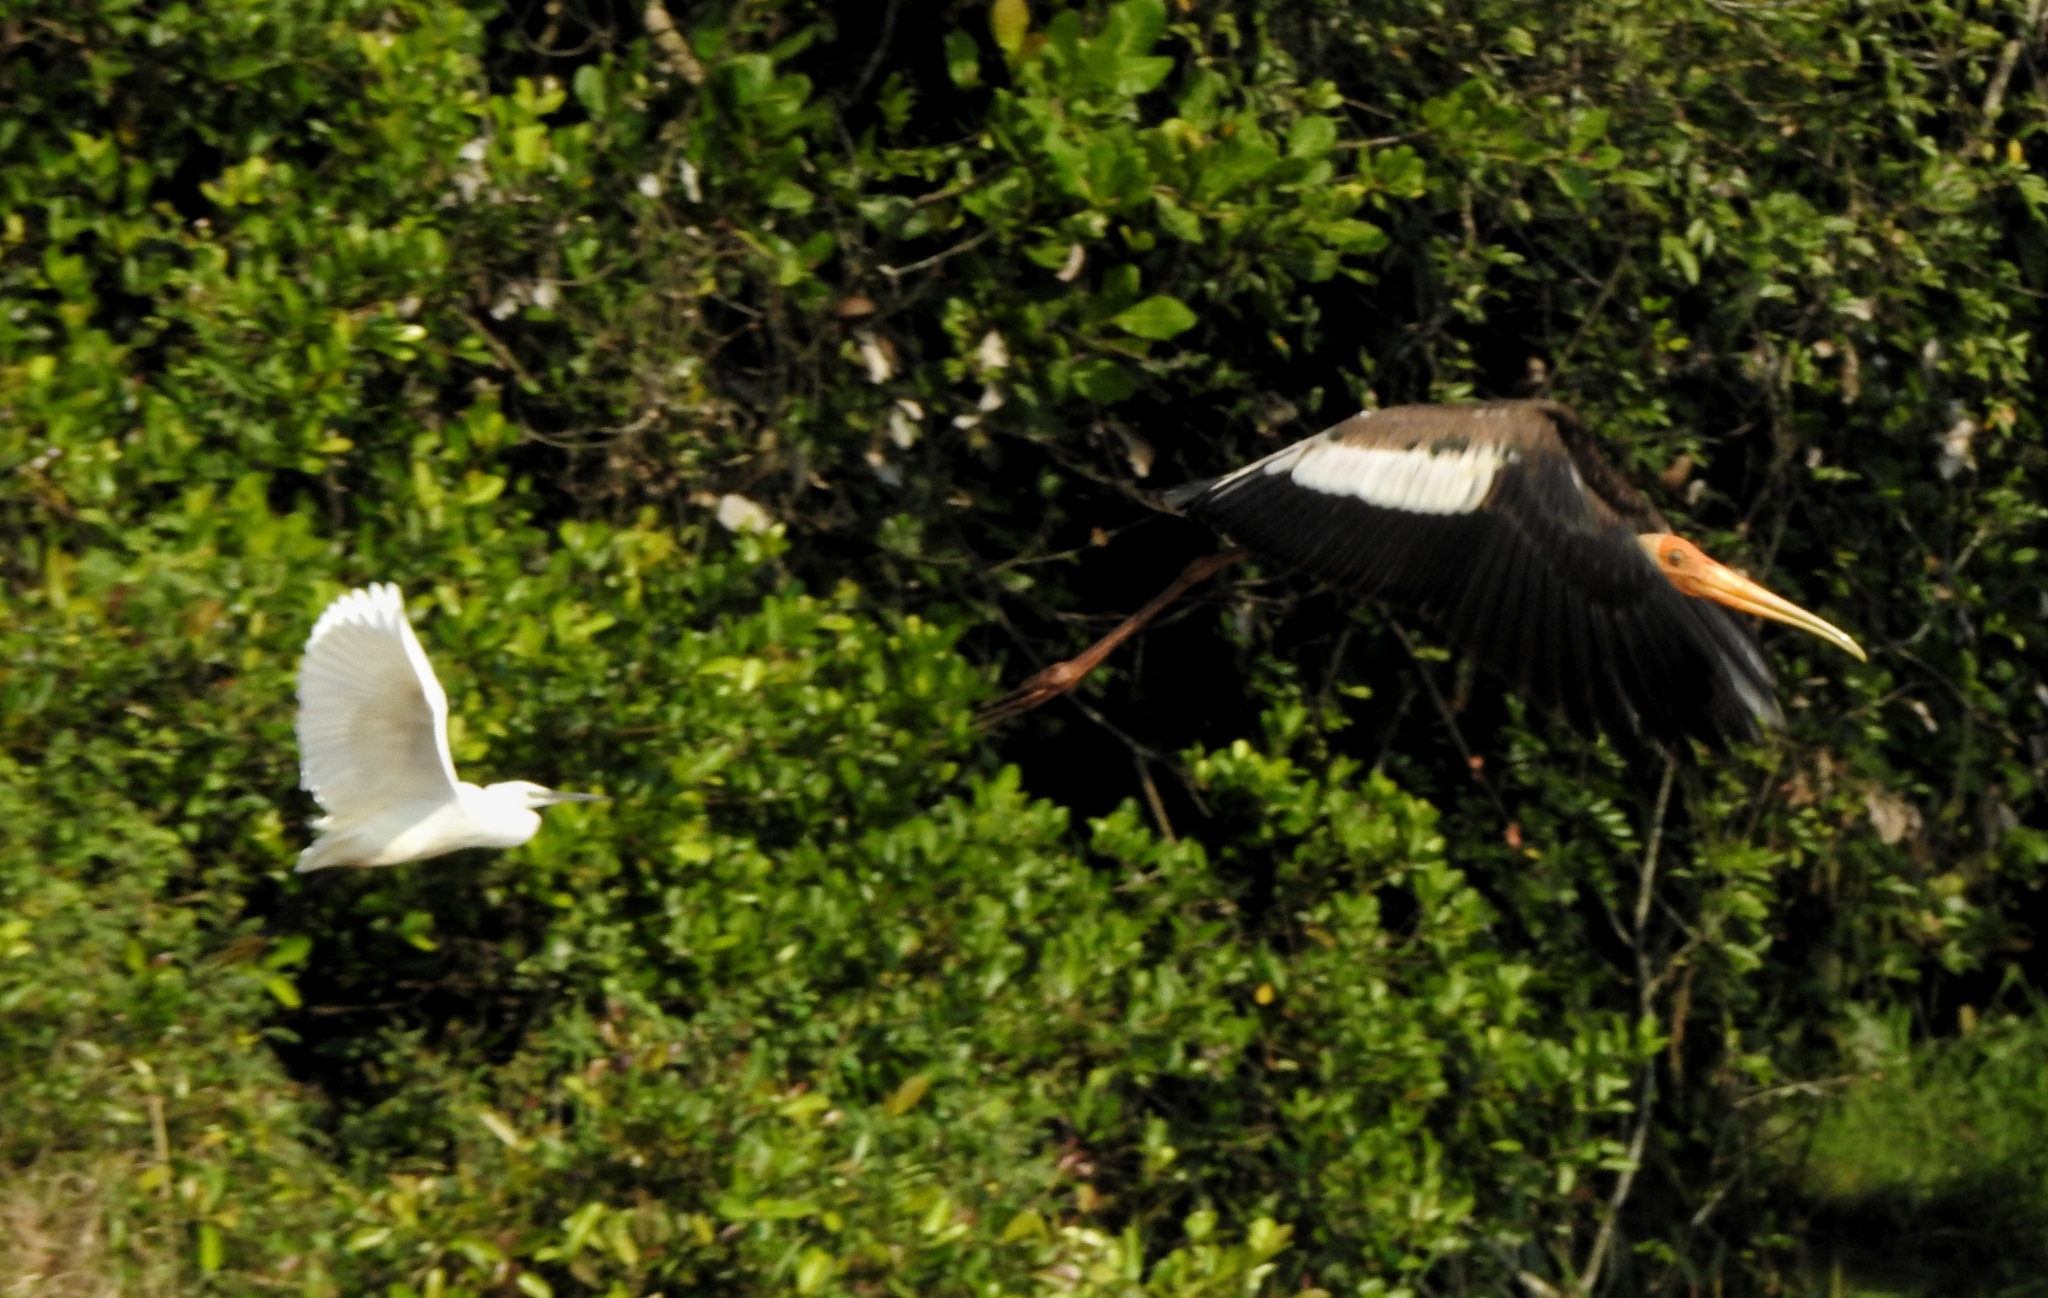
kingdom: Animalia
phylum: Chordata
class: Aves
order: Ciconiiformes
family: Ciconiidae
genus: Mycteria
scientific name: Mycteria leucocephala
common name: Painted stork
